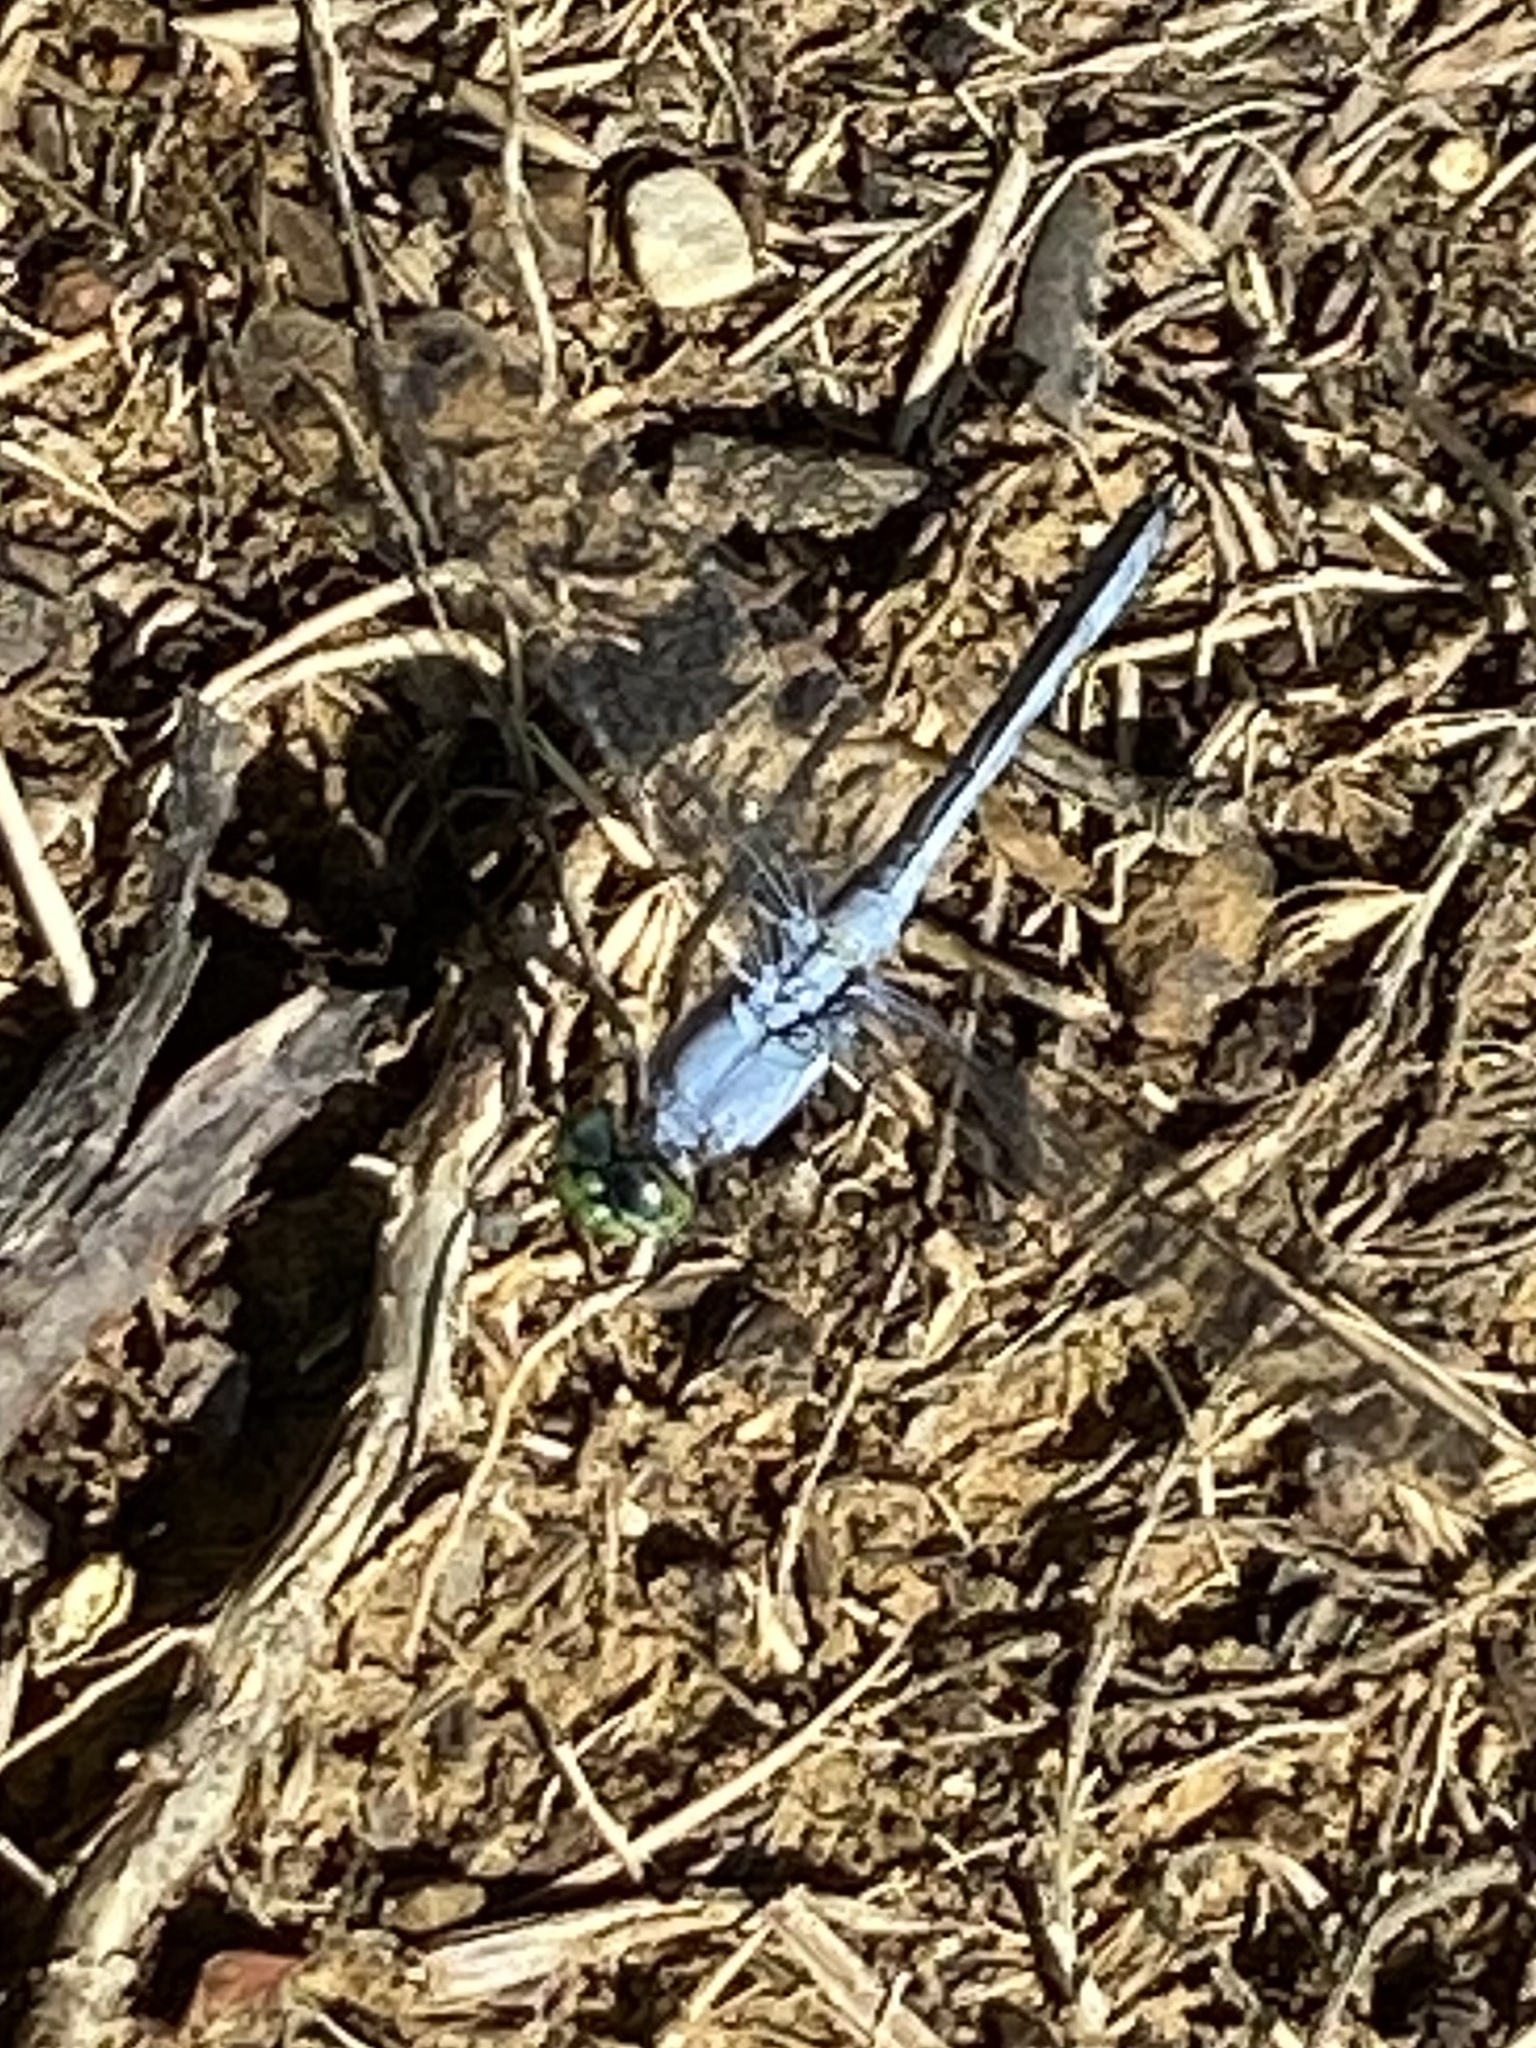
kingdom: Animalia
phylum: Arthropoda
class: Insecta
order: Odonata
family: Libellulidae
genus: Erythemis
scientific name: Erythemis simplicicollis
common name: Eastern pondhawk
